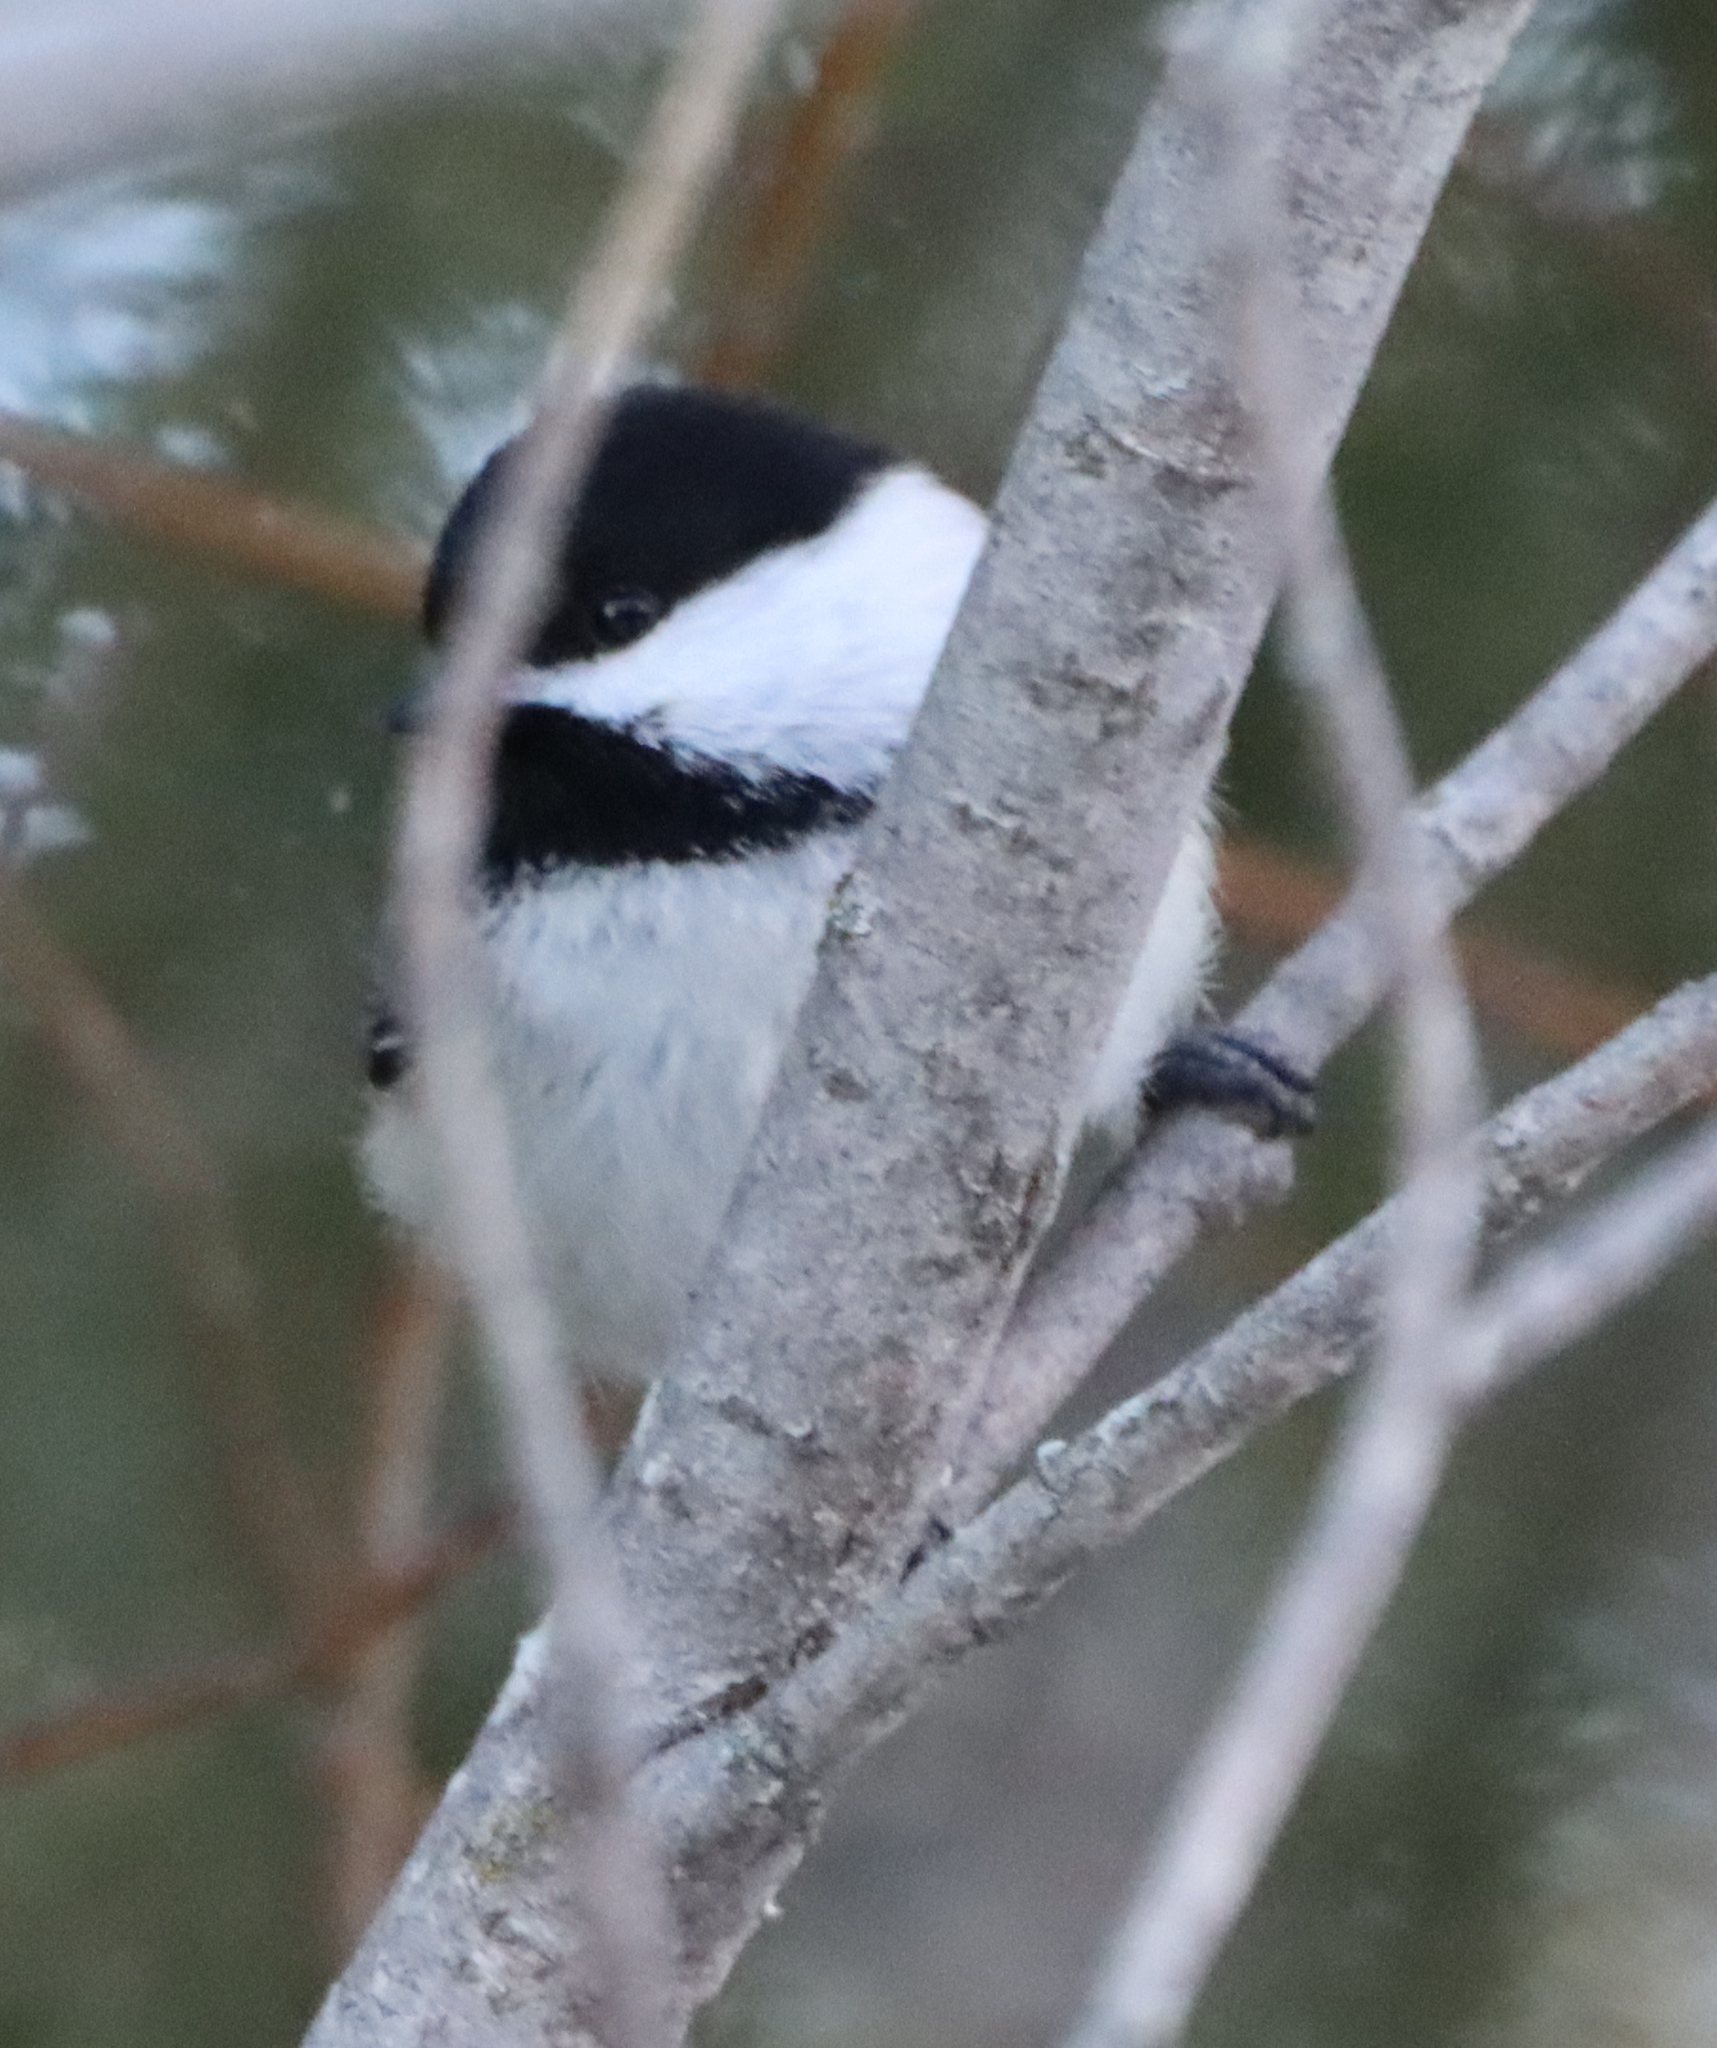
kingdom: Animalia
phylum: Chordata
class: Aves
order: Passeriformes
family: Paridae
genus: Poecile
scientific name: Poecile atricapillus
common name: Black-capped chickadee
